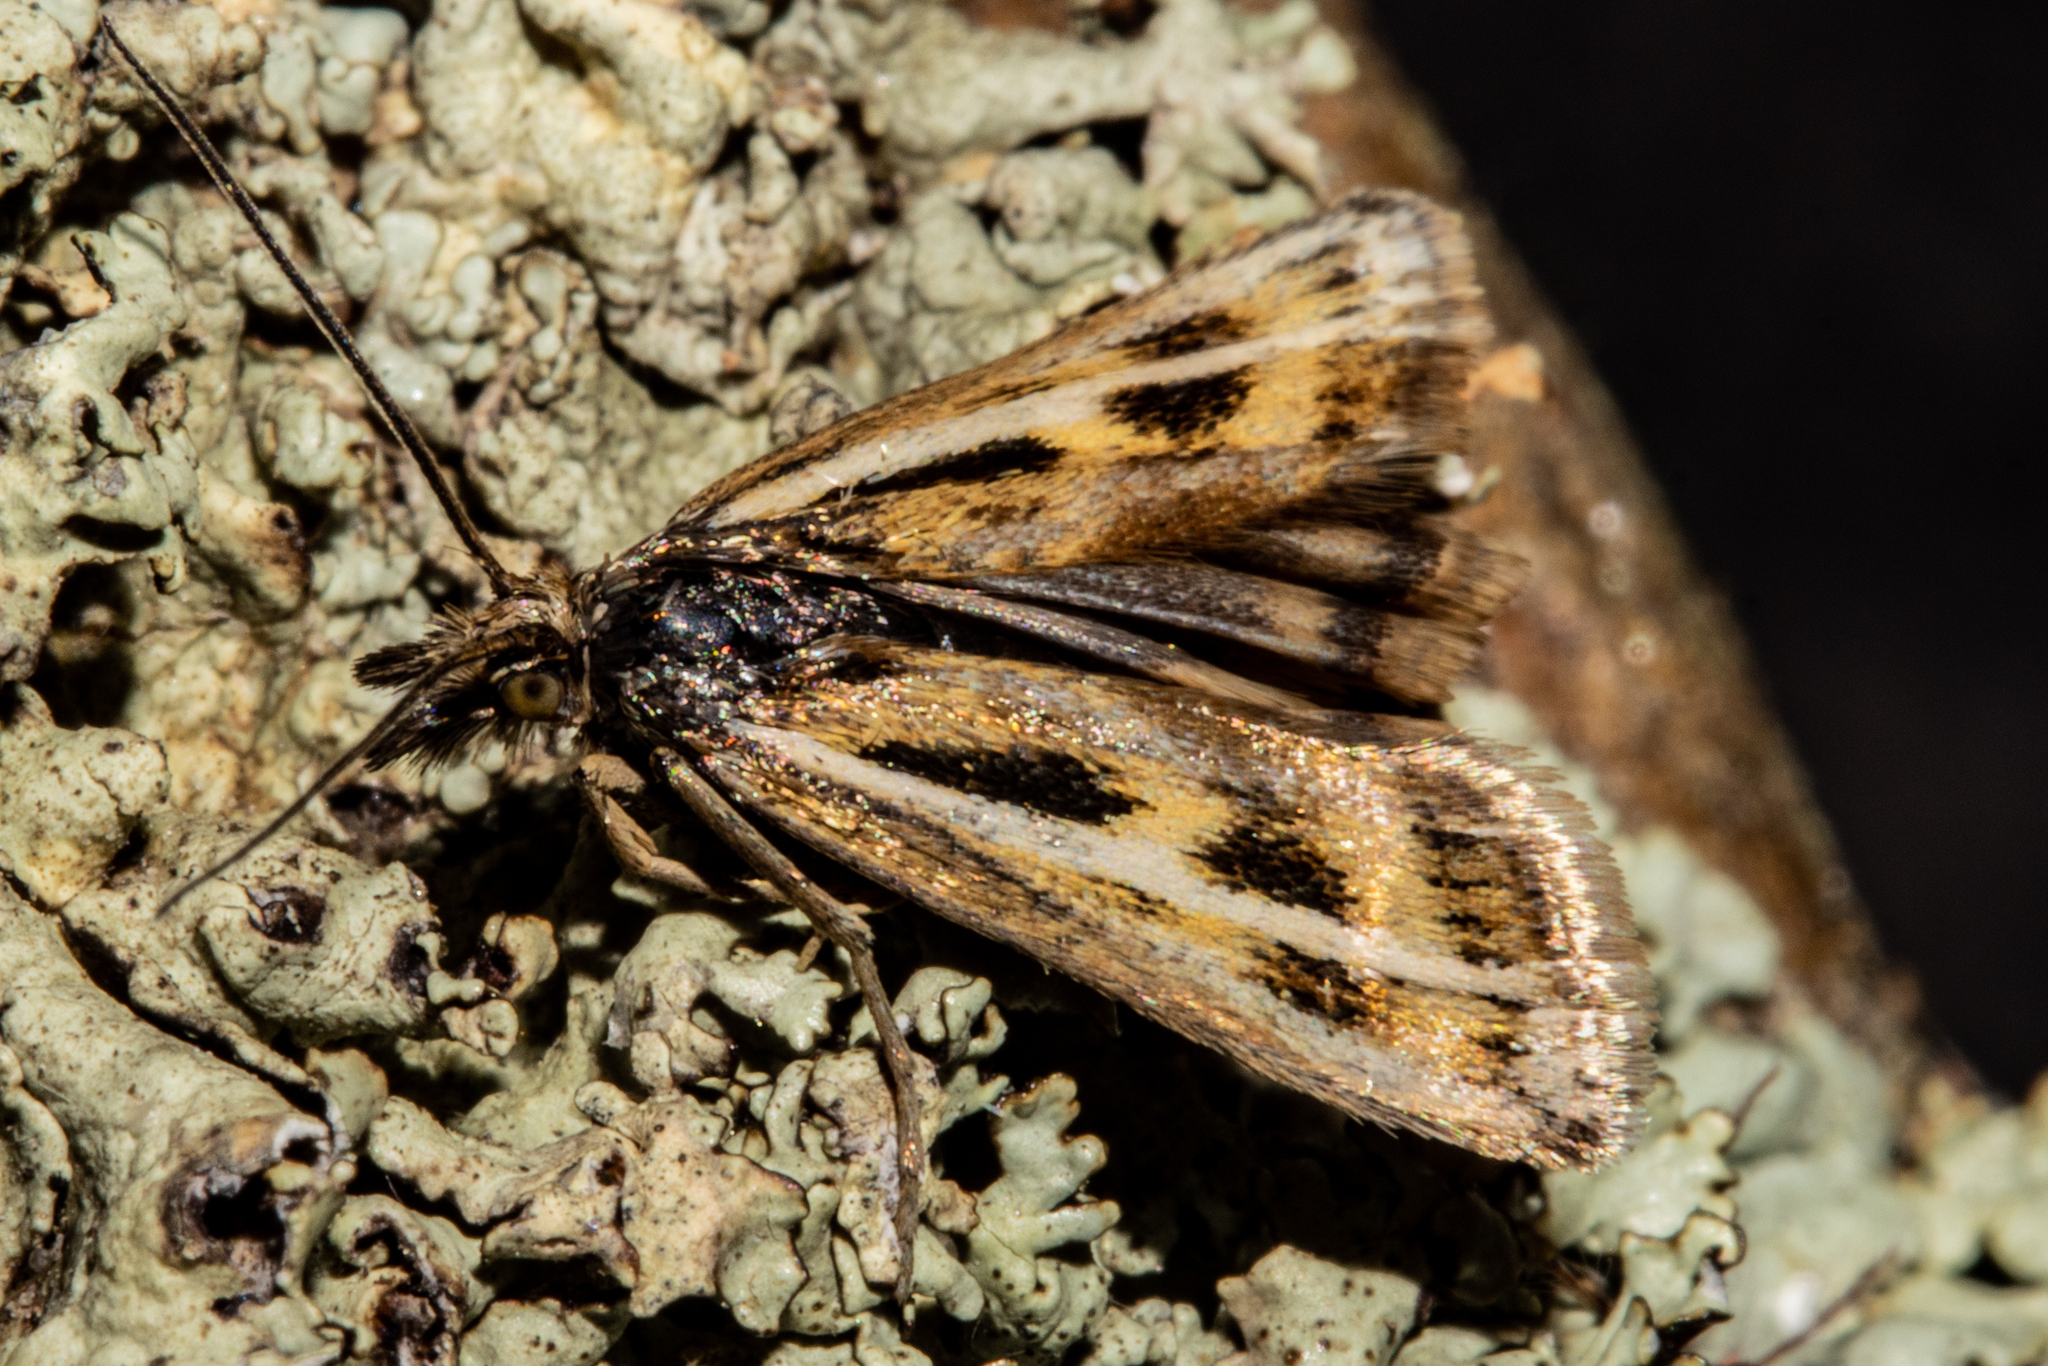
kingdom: Animalia
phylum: Arthropoda
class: Insecta
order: Lepidoptera
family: Crambidae
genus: Orocrambus
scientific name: Orocrambus corruptus
